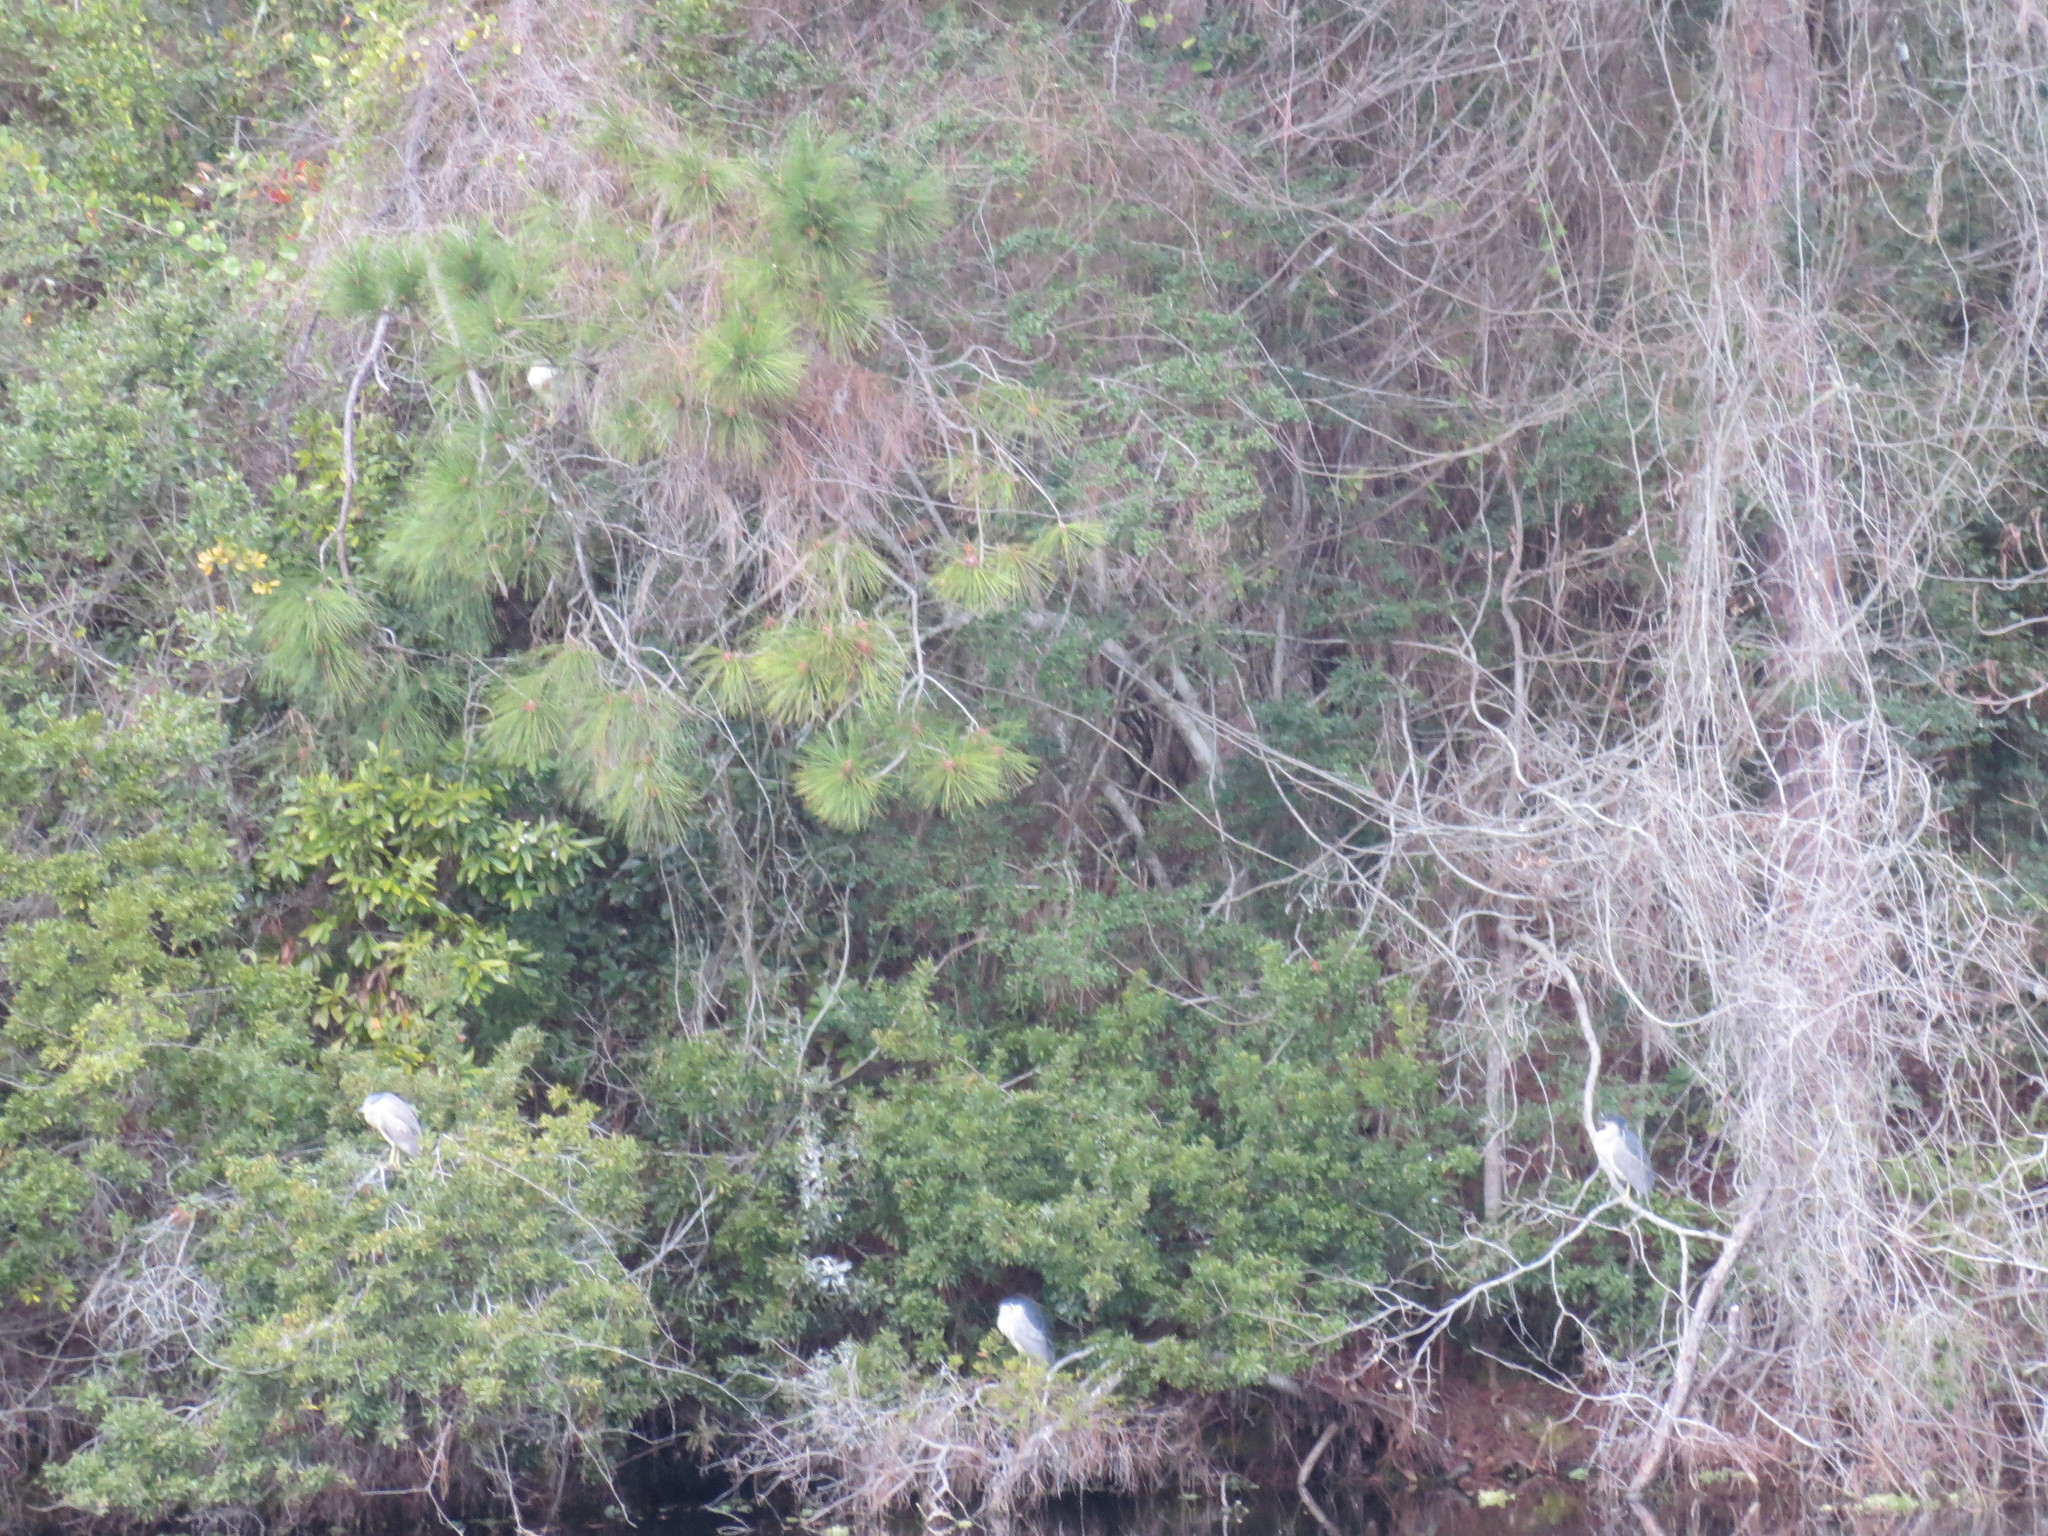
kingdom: Animalia
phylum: Chordata
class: Aves
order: Pelecaniformes
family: Ardeidae
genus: Nycticorax
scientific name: Nycticorax nycticorax
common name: Black-crowned night heron
